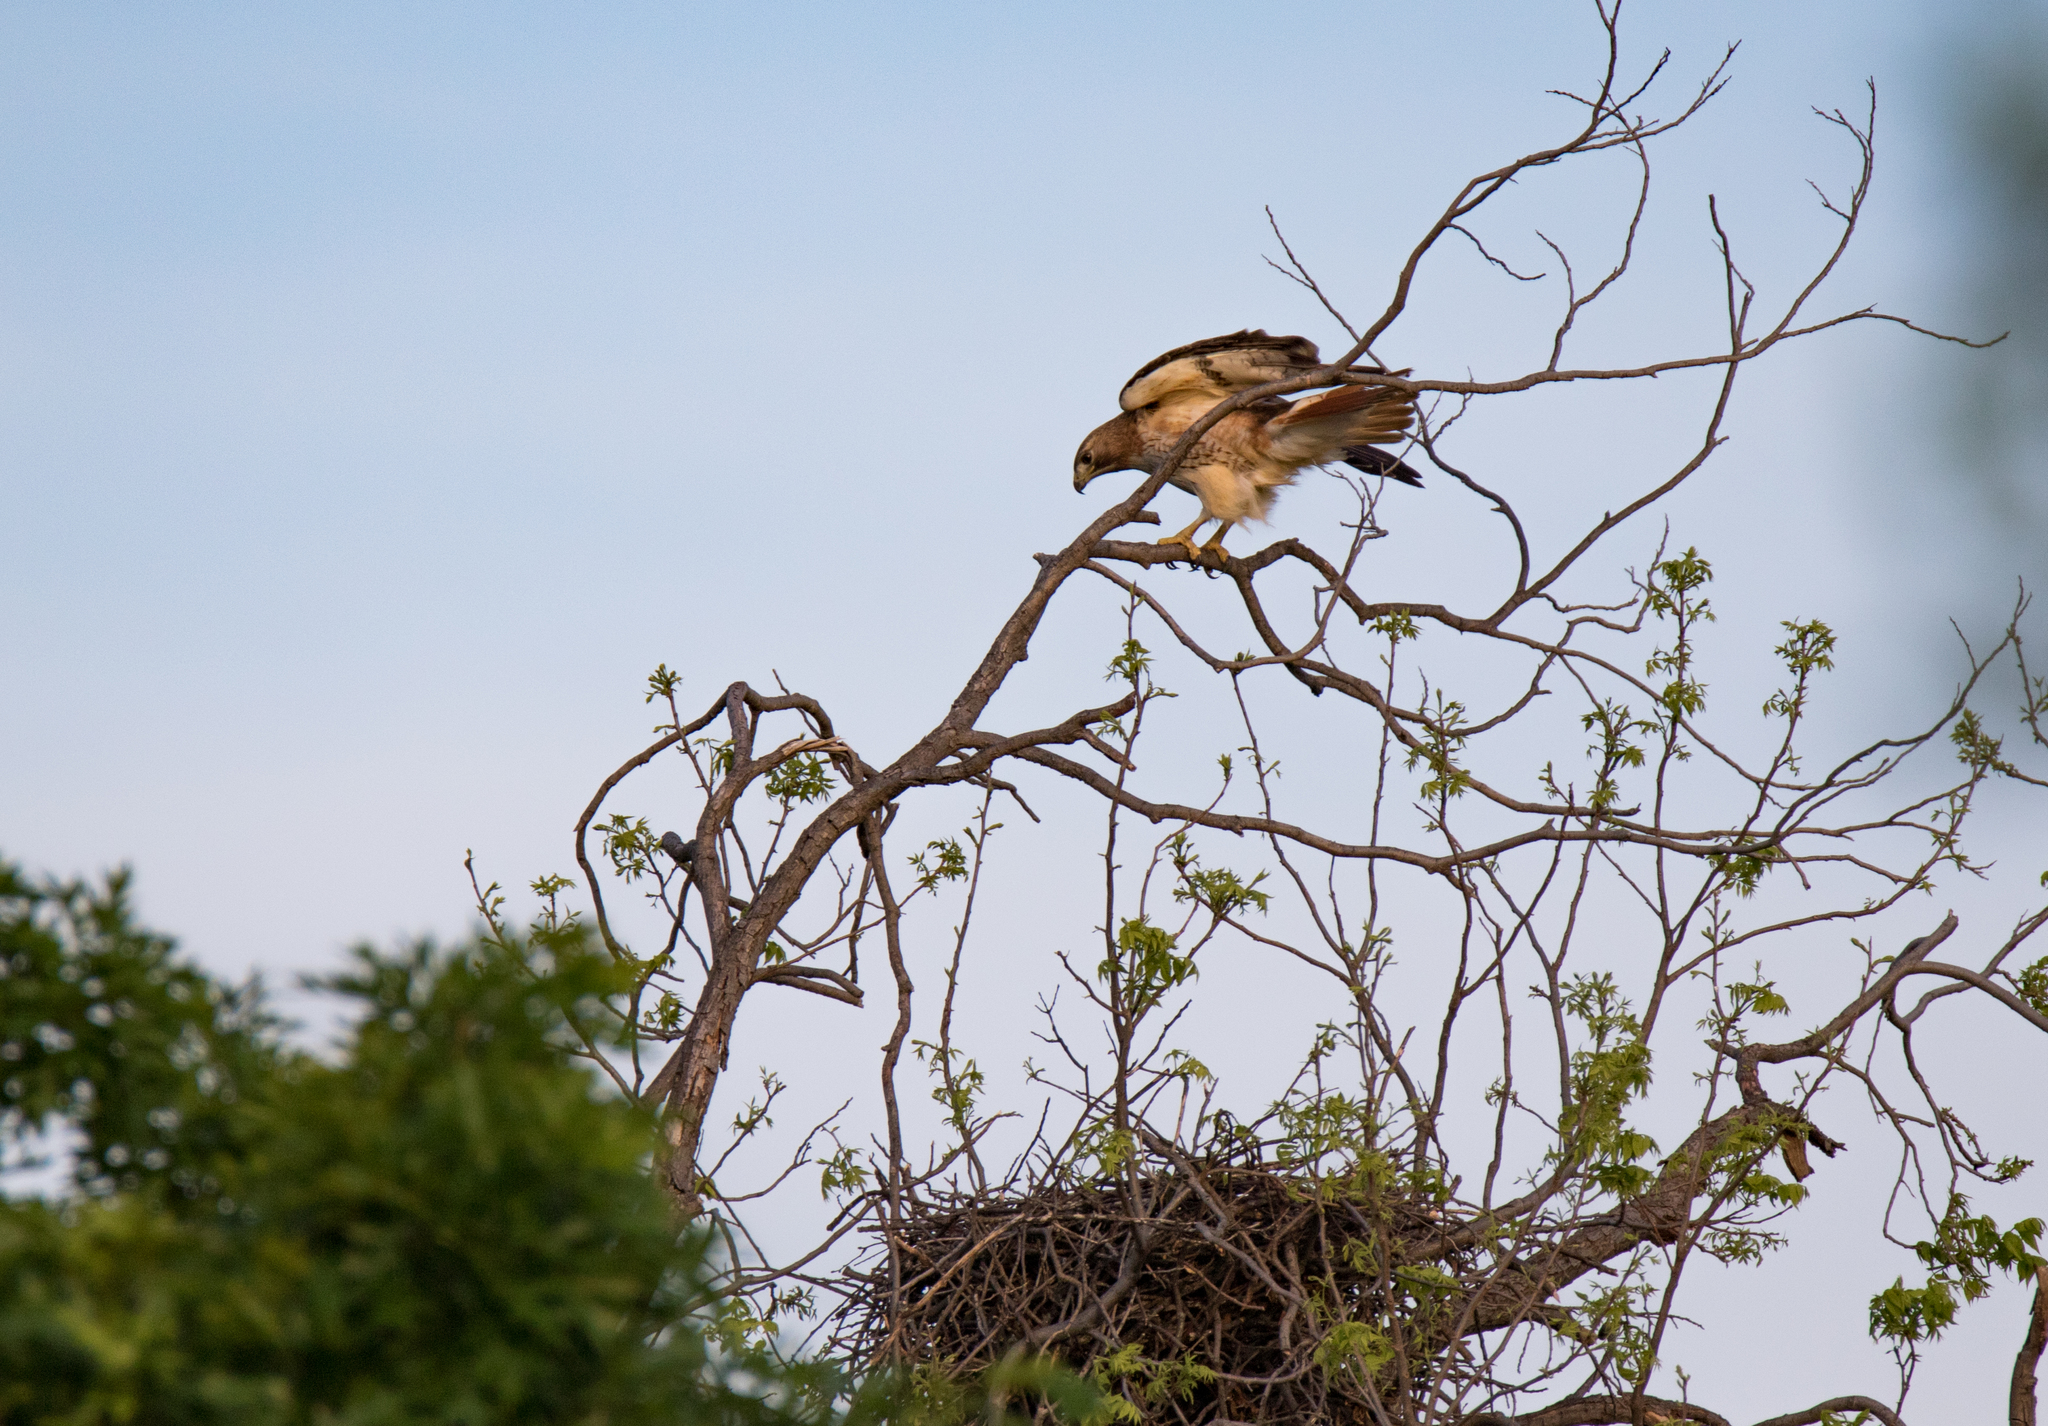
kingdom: Animalia
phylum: Chordata
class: Aves
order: Accipitriformes
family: Accipitridae
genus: Buteo
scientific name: Buteo jamaicensis
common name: Red-tailed hawk
